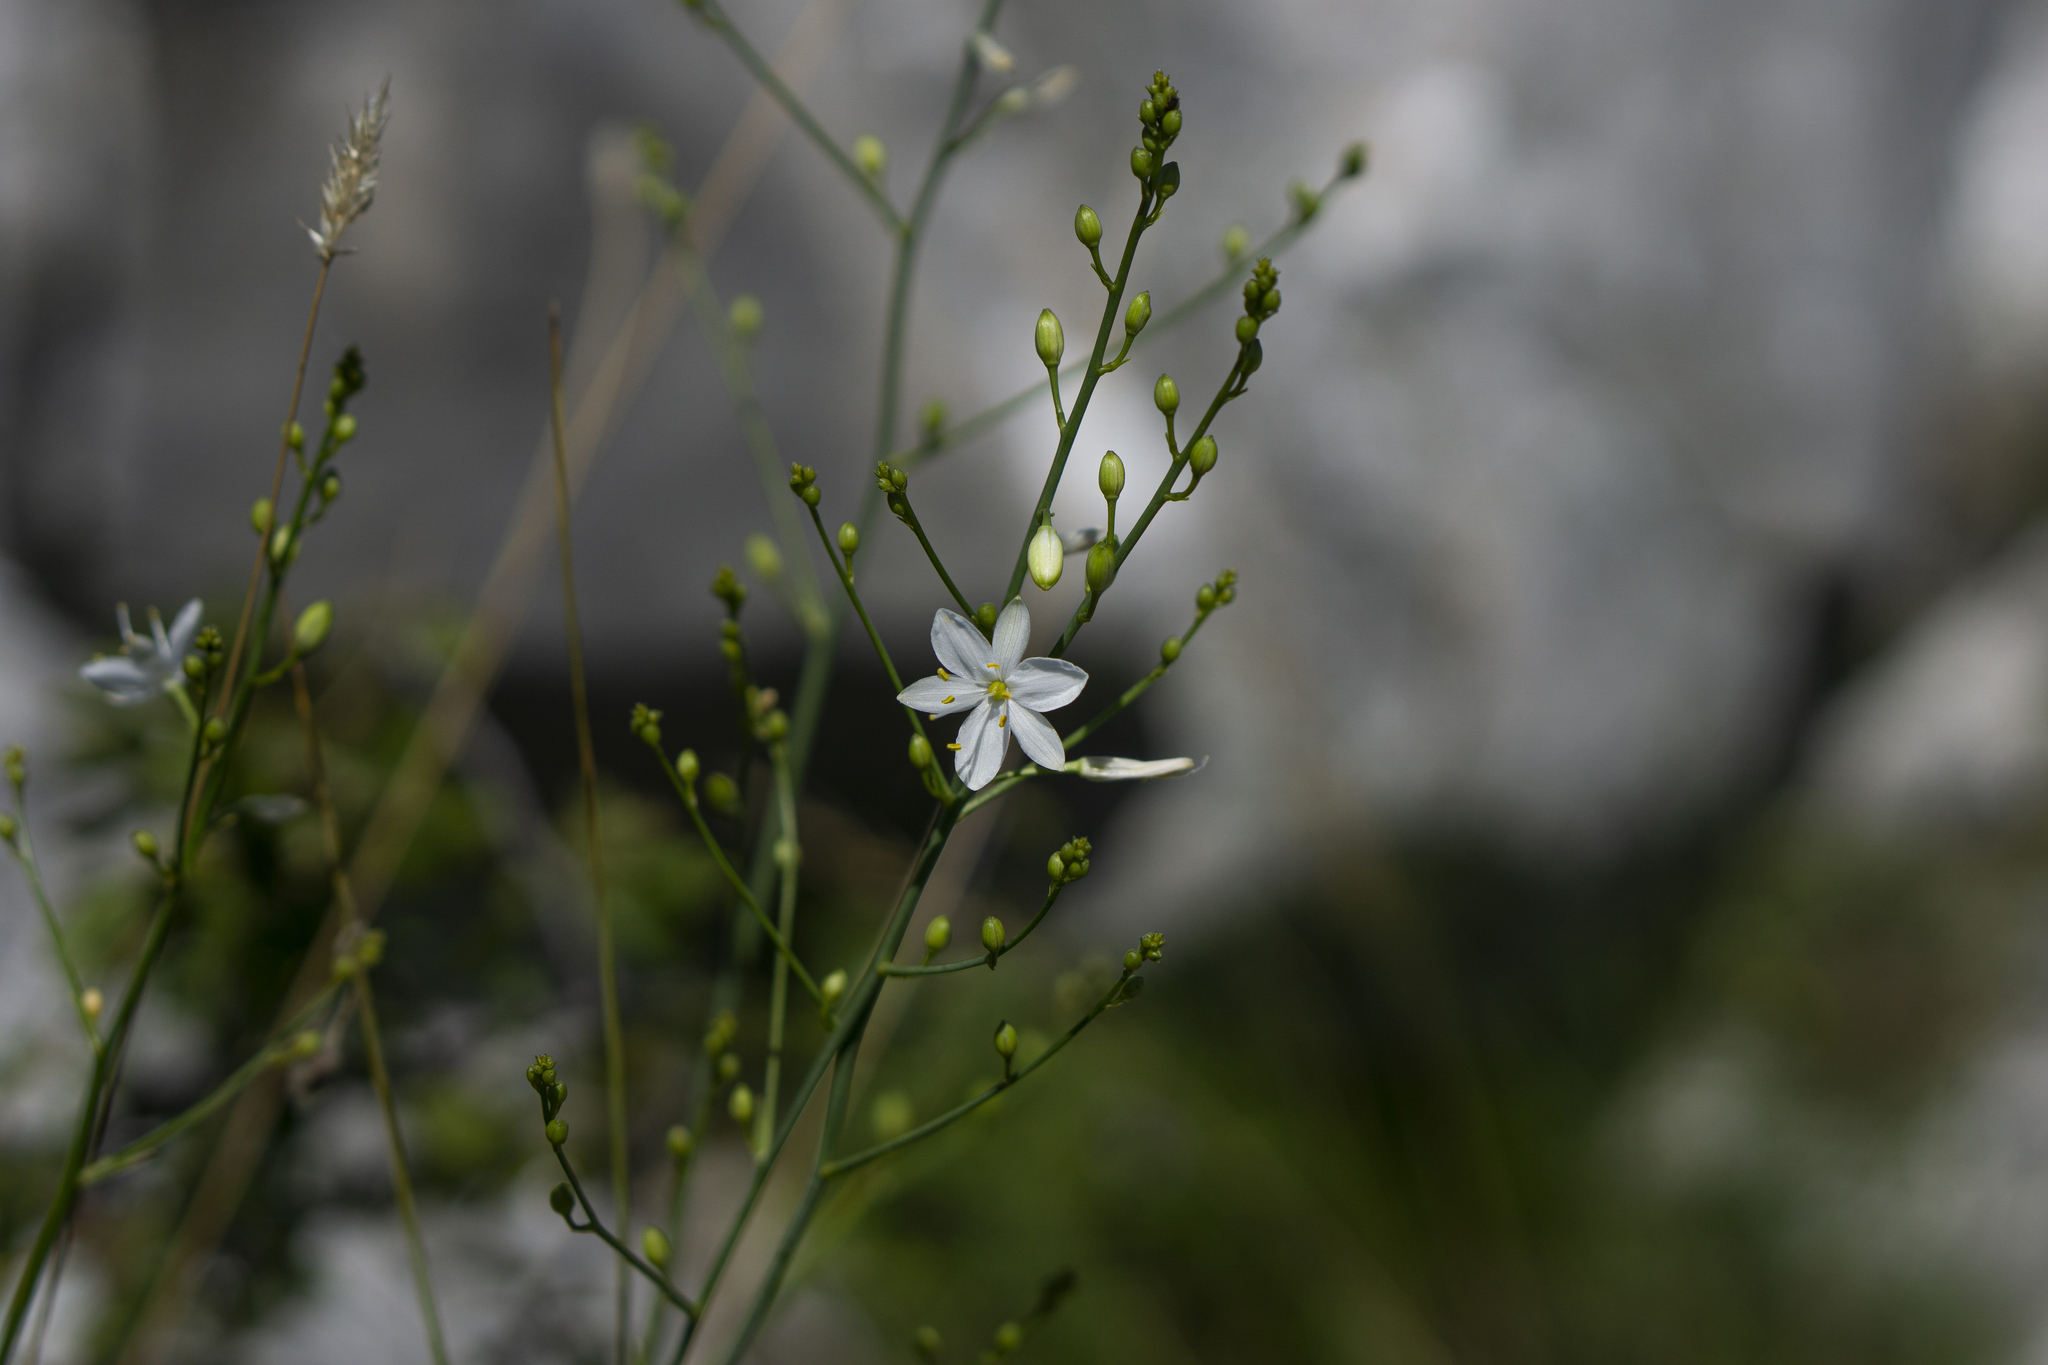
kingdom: Plantae
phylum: Tracheophyta
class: Liliopsida
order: Asparagales
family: Asparagaceae
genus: Anthericum
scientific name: Anthericum ramosum
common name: Branched st. bernard's-lily
